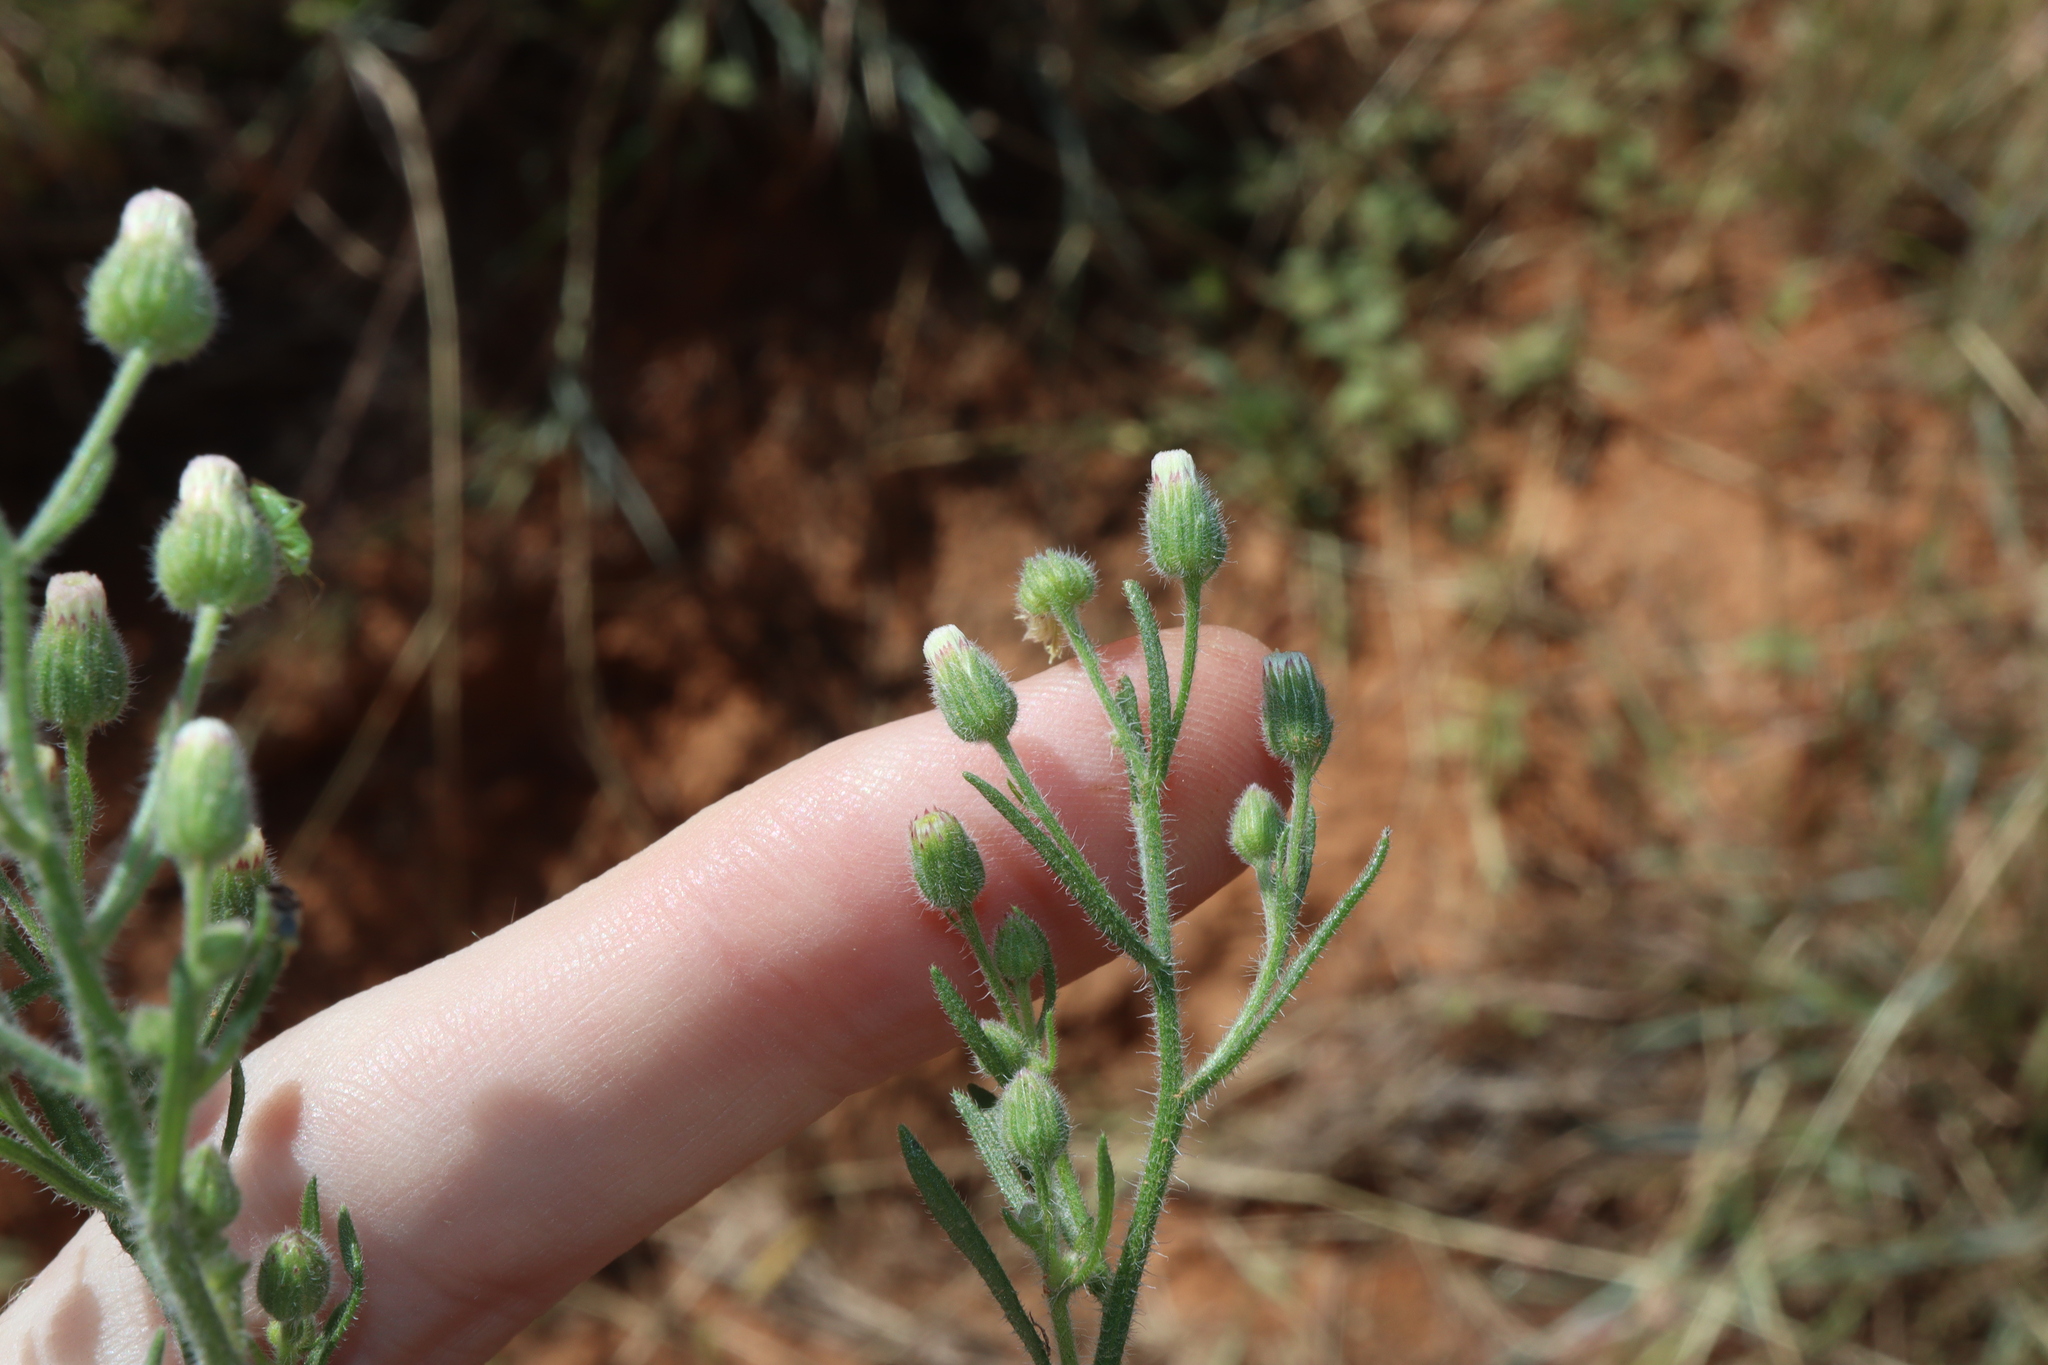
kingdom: Plantae
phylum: Tracheophyta
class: Magnoliopsida
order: Asterales
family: Asteraceae
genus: Erigeron
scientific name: Erigeron bonariensis
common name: Argentine fleabane
